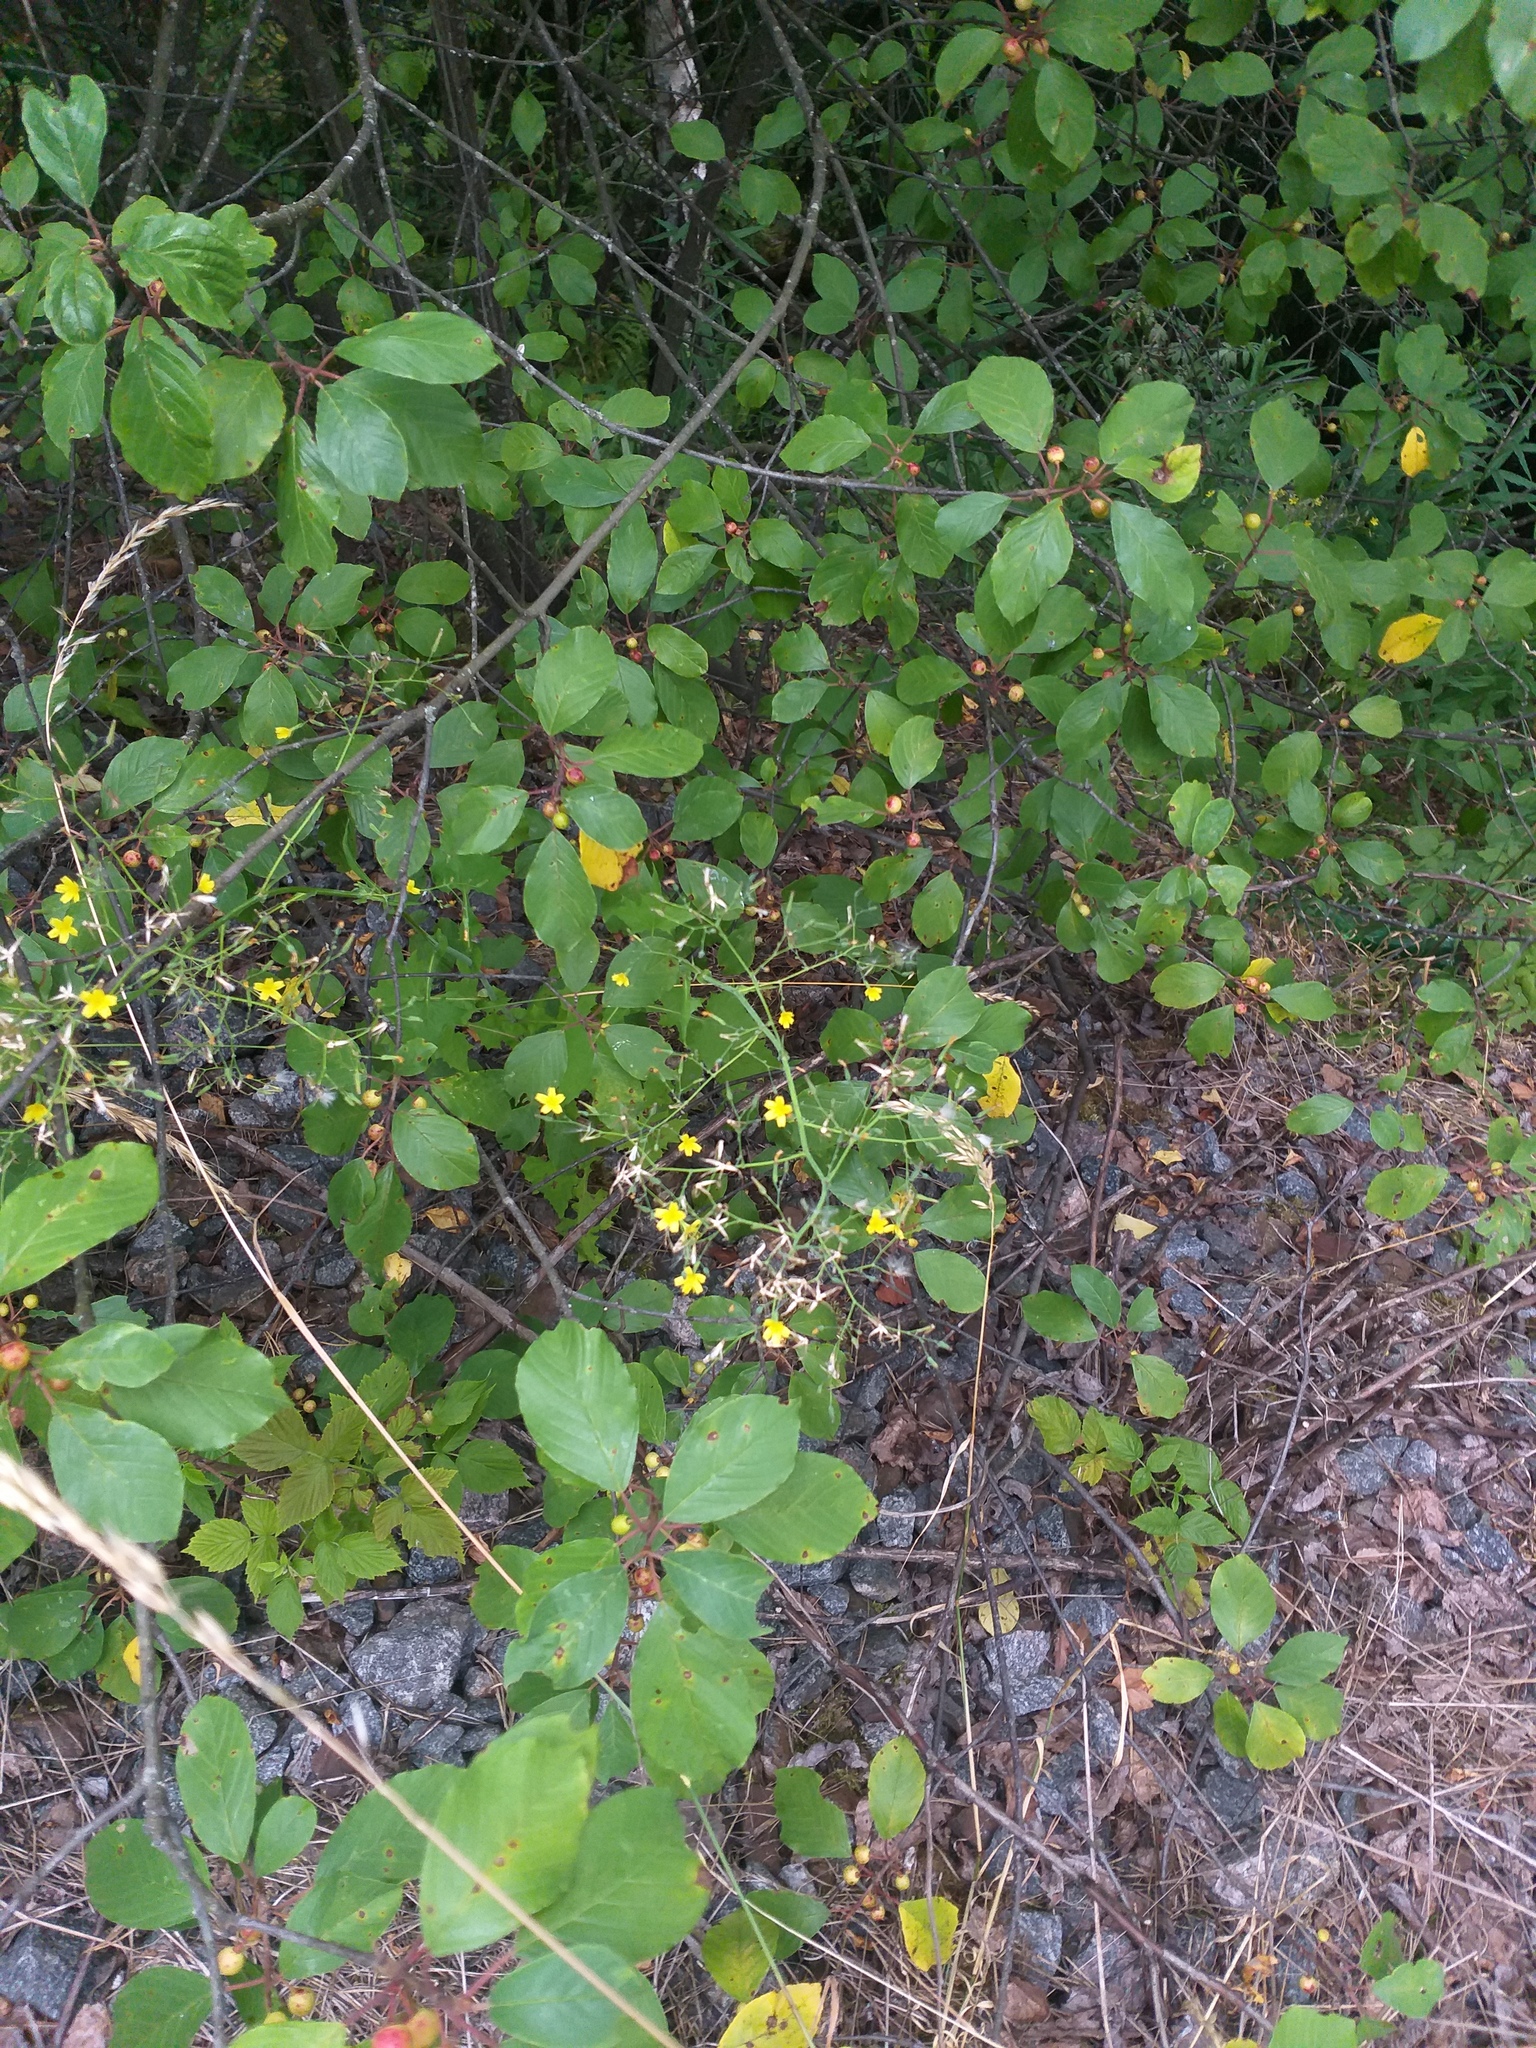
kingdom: Plantae
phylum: Tracheophyta
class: Magnoliopsida
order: Asterales
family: Asteraceae
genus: Mycelis
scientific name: Mycelis muralis
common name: Wall lettuce
